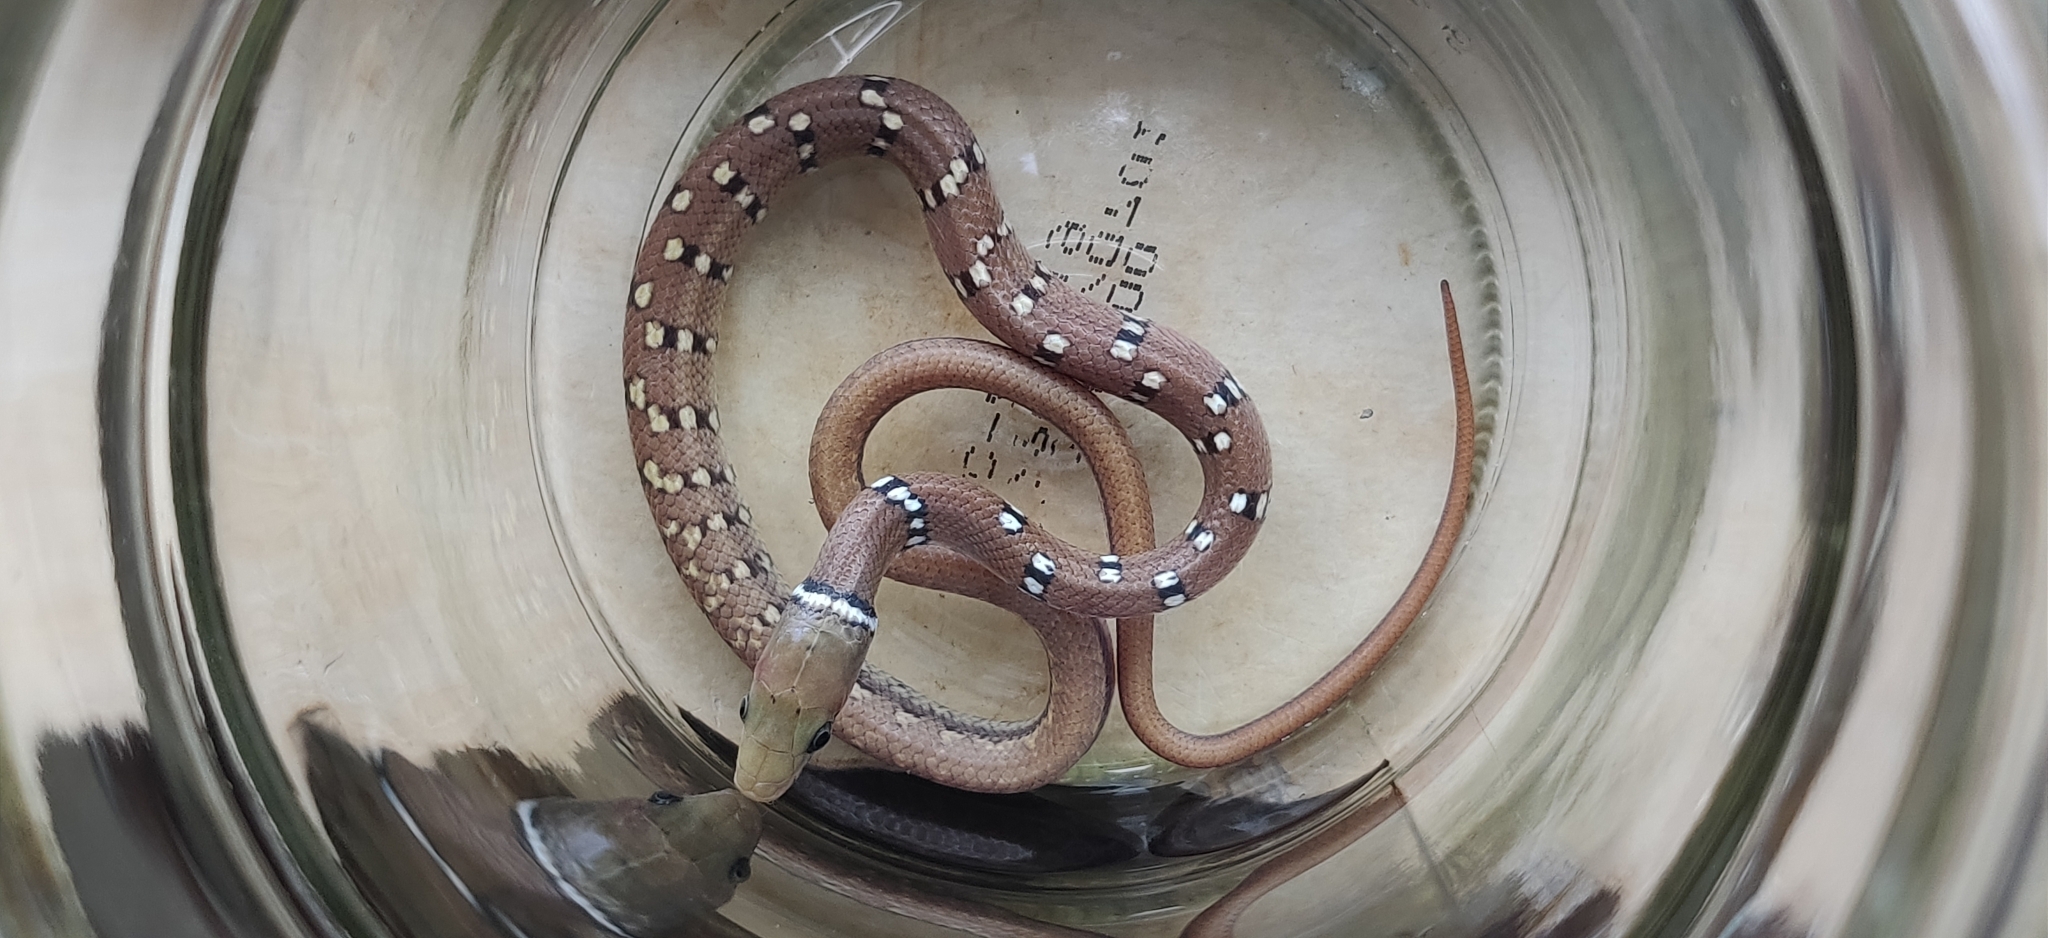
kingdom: Animalia
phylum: Chordata
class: Squamata
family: Colubridae
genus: Coelognathus
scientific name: Coelognathus helena
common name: Trinket snake
